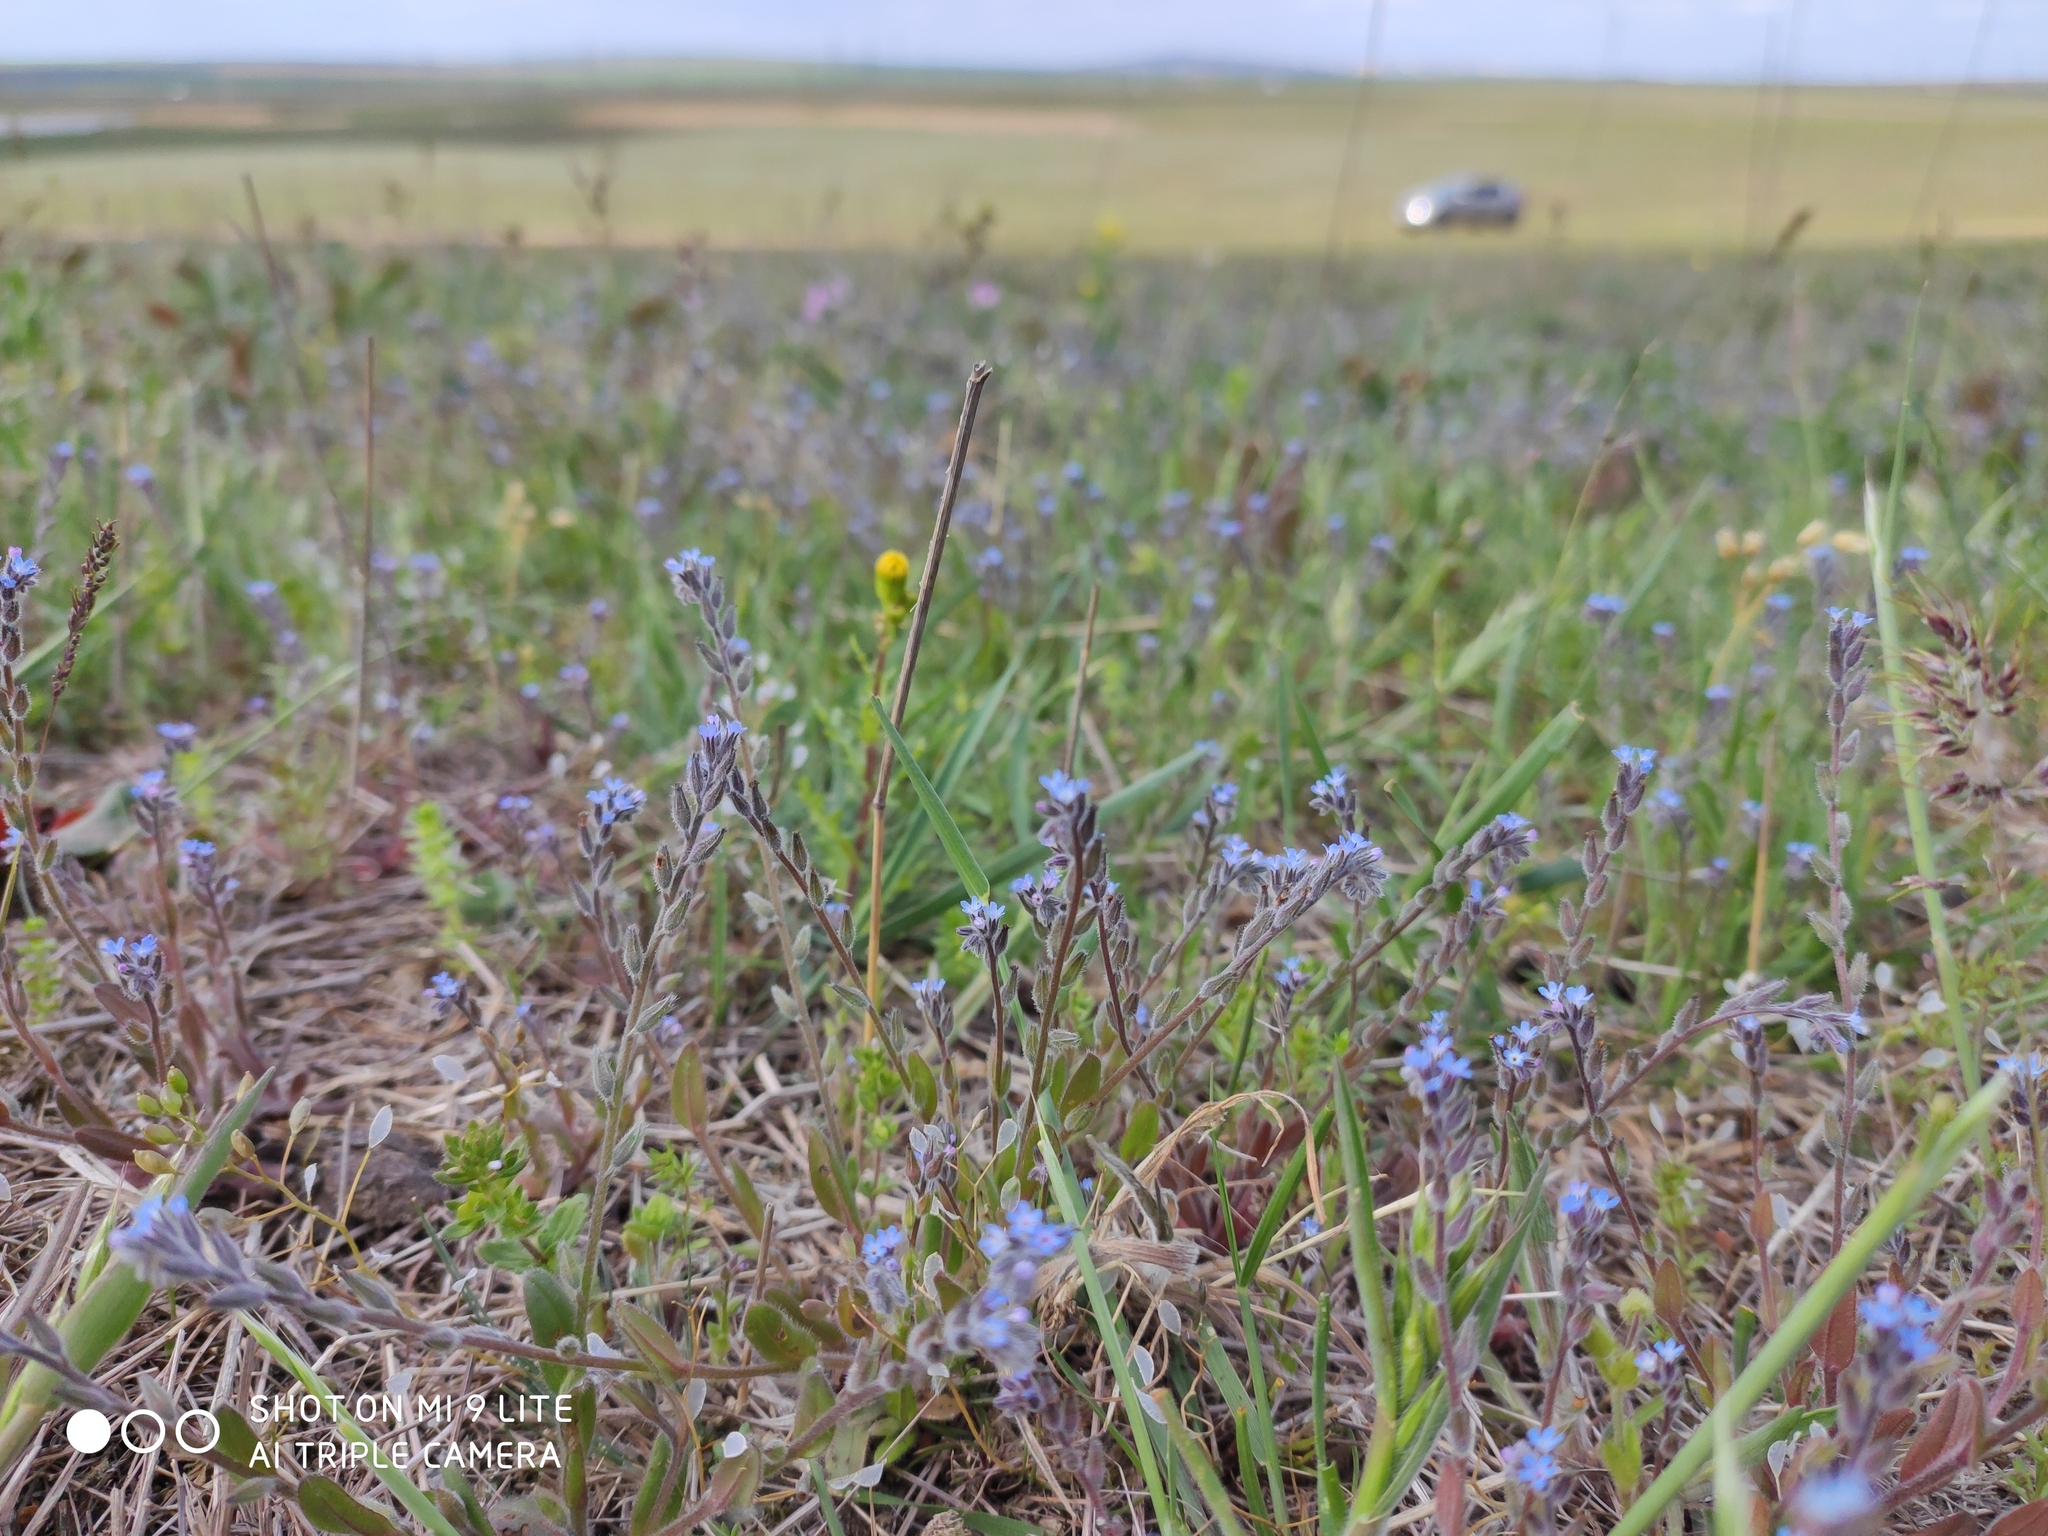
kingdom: Plantae
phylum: Tracheophyta
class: Magnoliopsida
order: Boraginales
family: Boraginaceae
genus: Myosotis
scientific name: Myosotis stricta
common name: Strict forget-me-not
